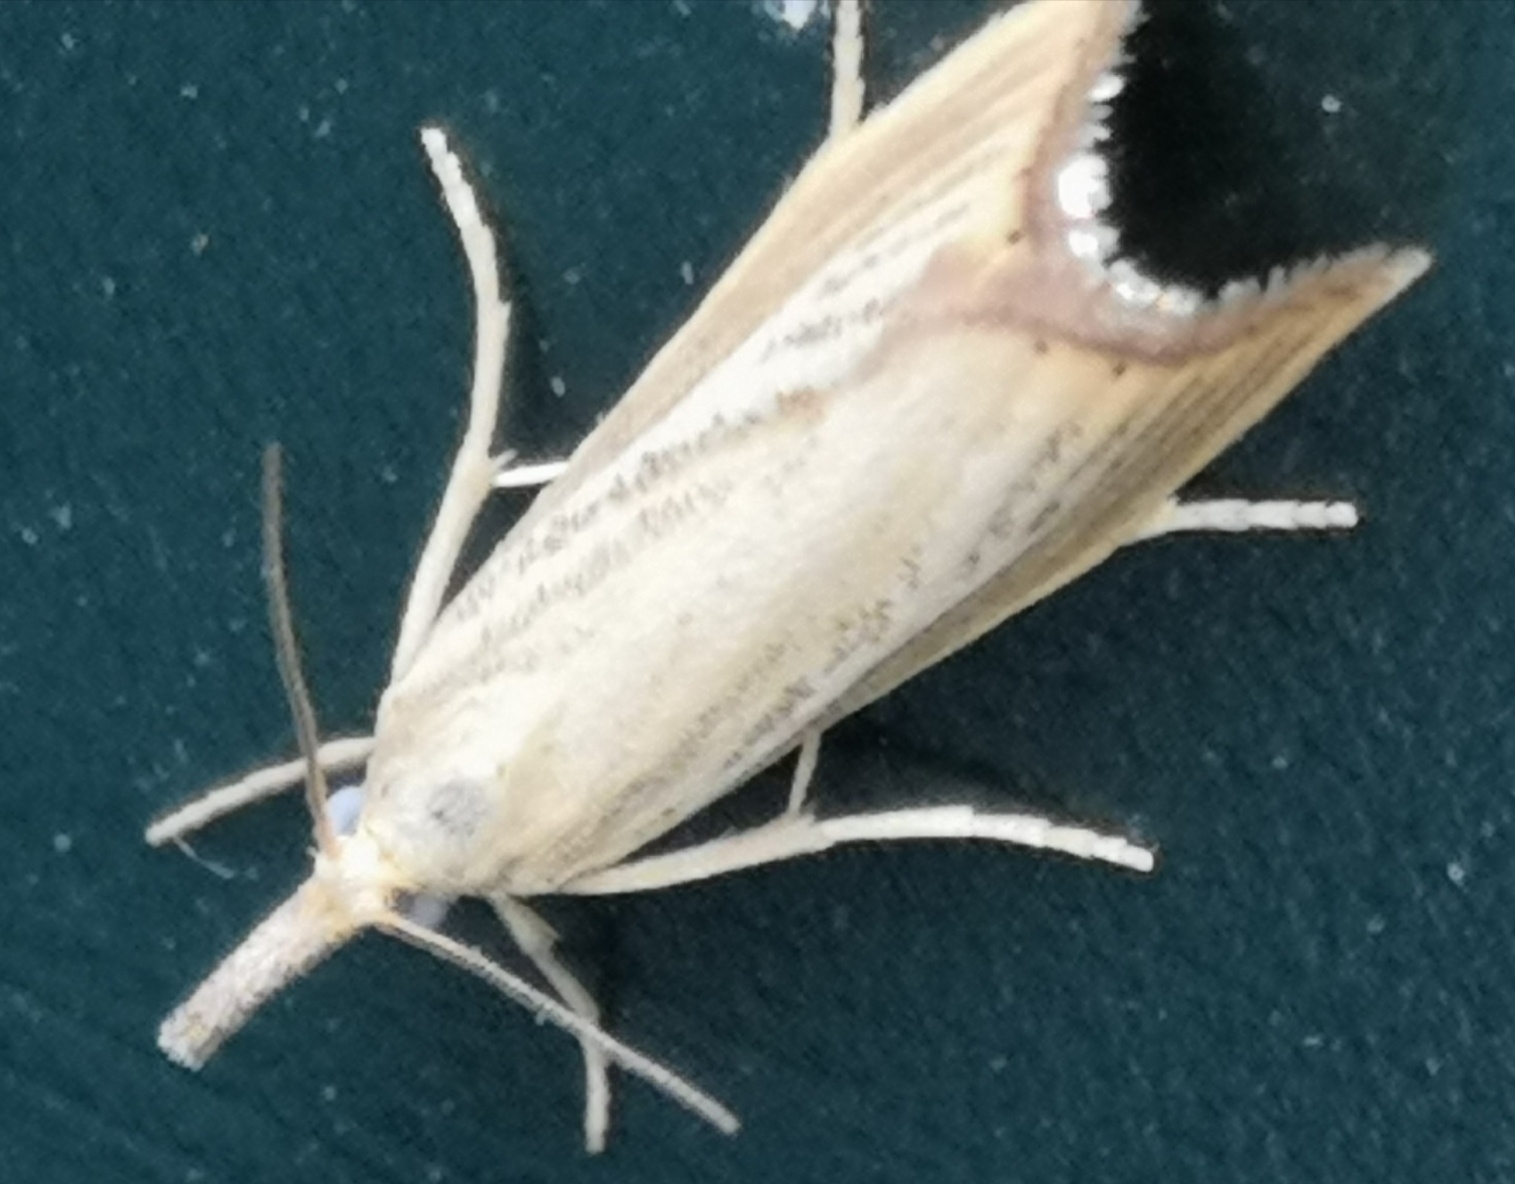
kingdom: Animalia
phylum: Arthropoda
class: Insecta
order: Lepidoptera
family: Crambidae
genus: Agriphila
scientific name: Agriphila straminella
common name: Straw grass-veneer
